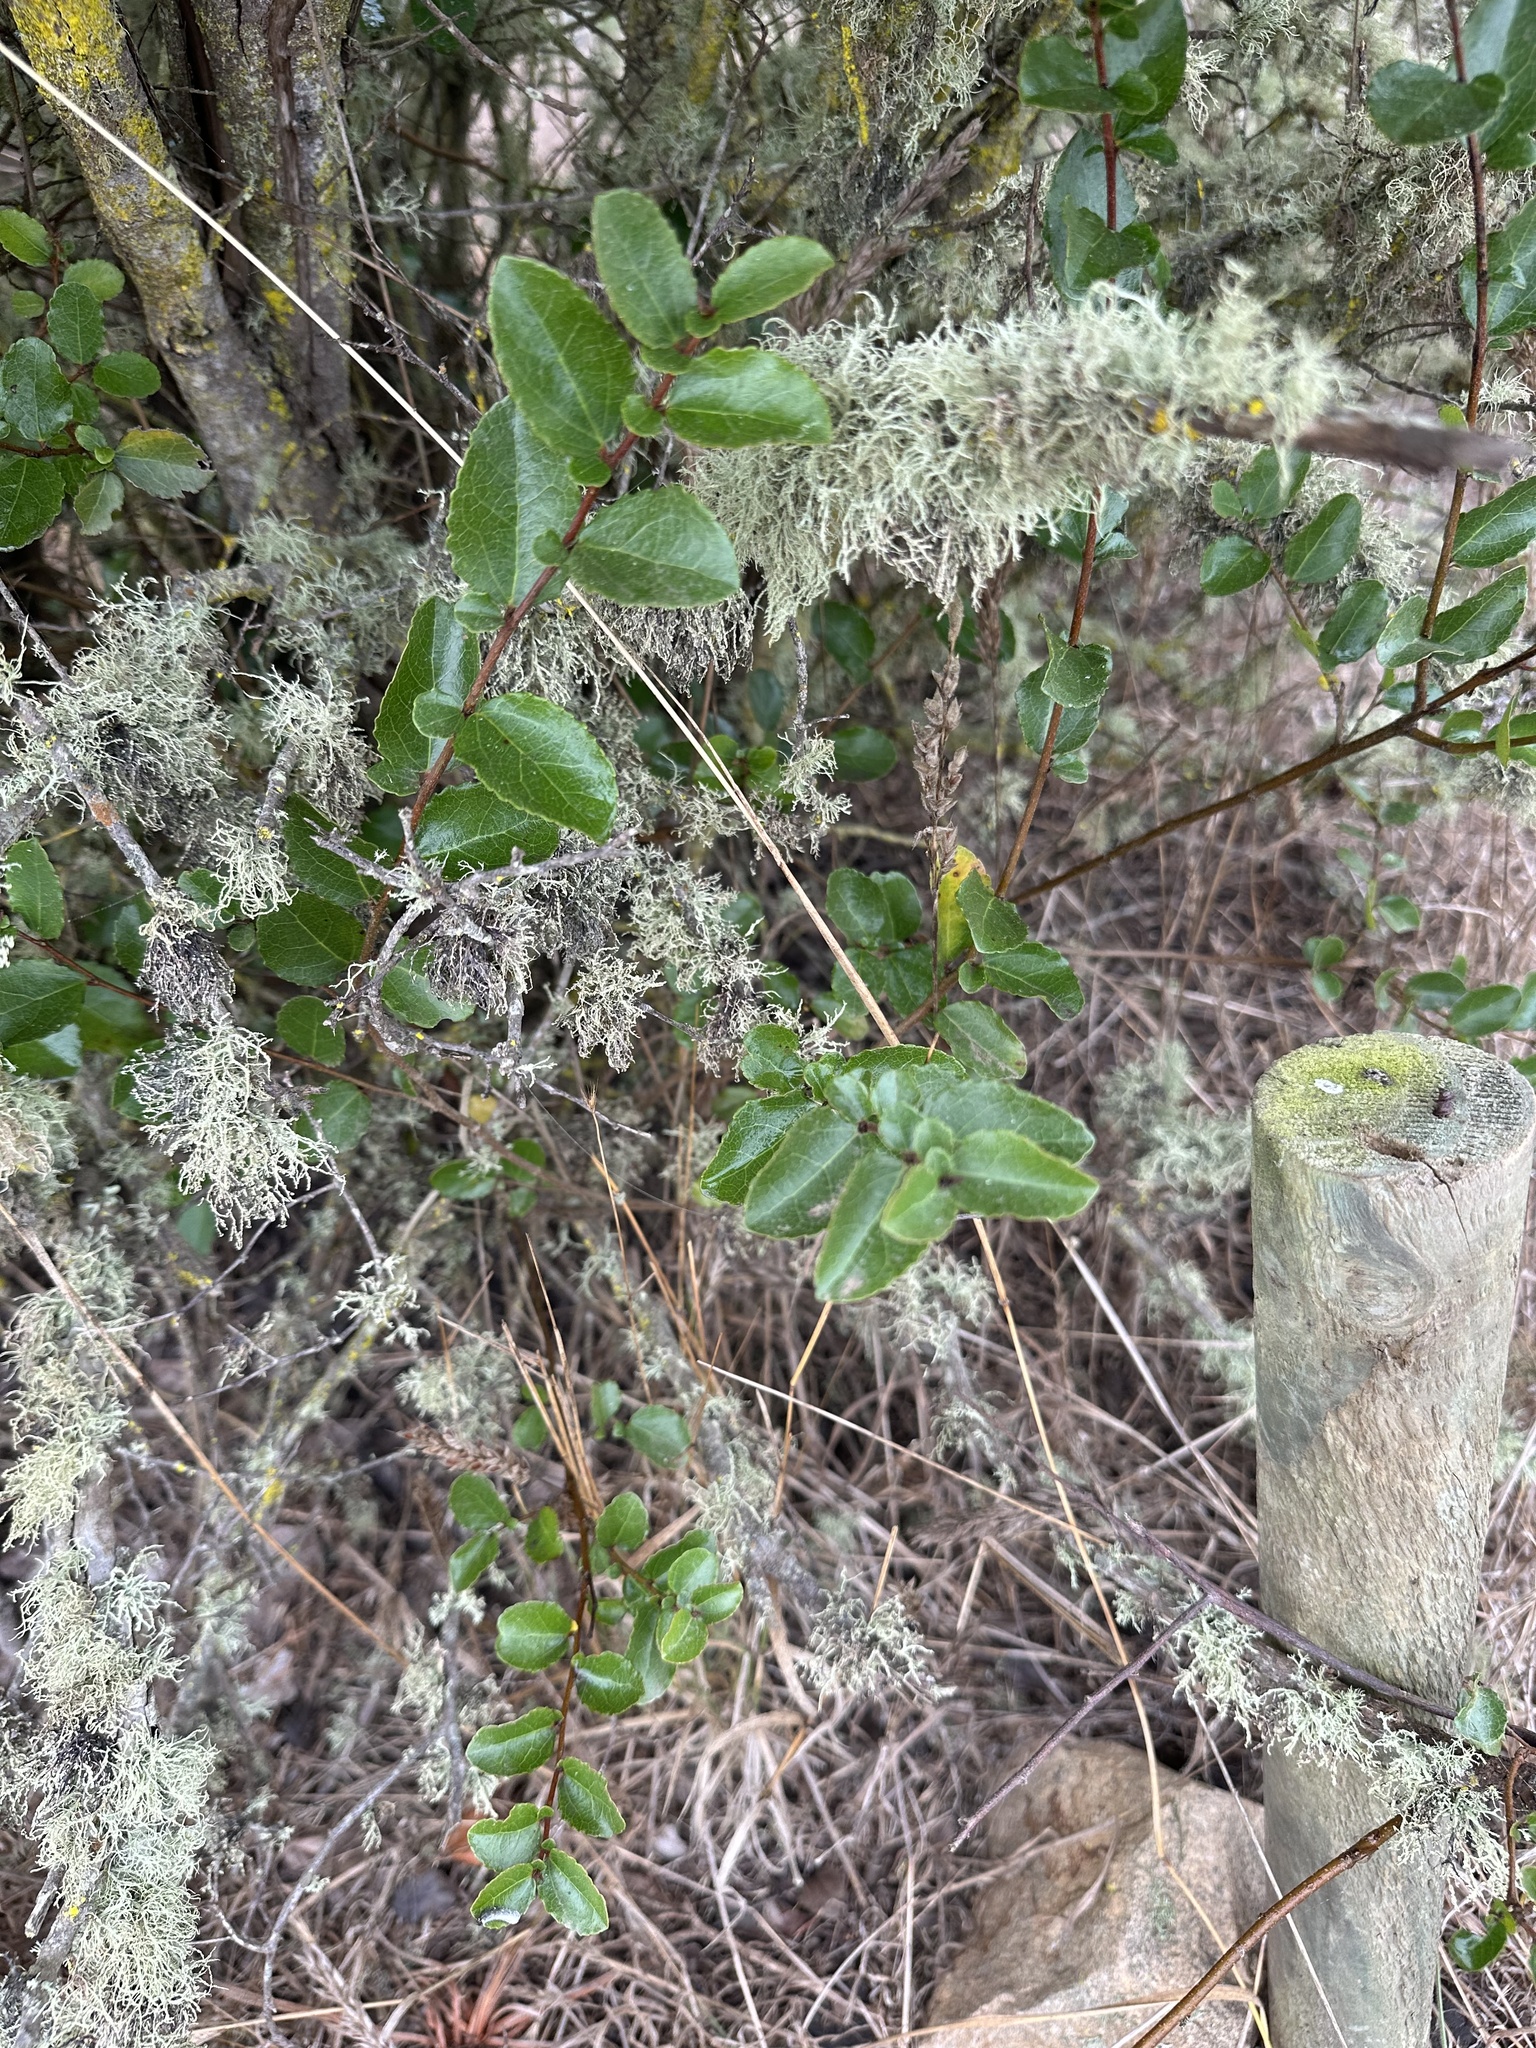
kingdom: Plantae
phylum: Tracheophyta
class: Magnoliopsida
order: Malpighiales
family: Salicaceae
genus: Azara
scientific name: Azara celastrina
